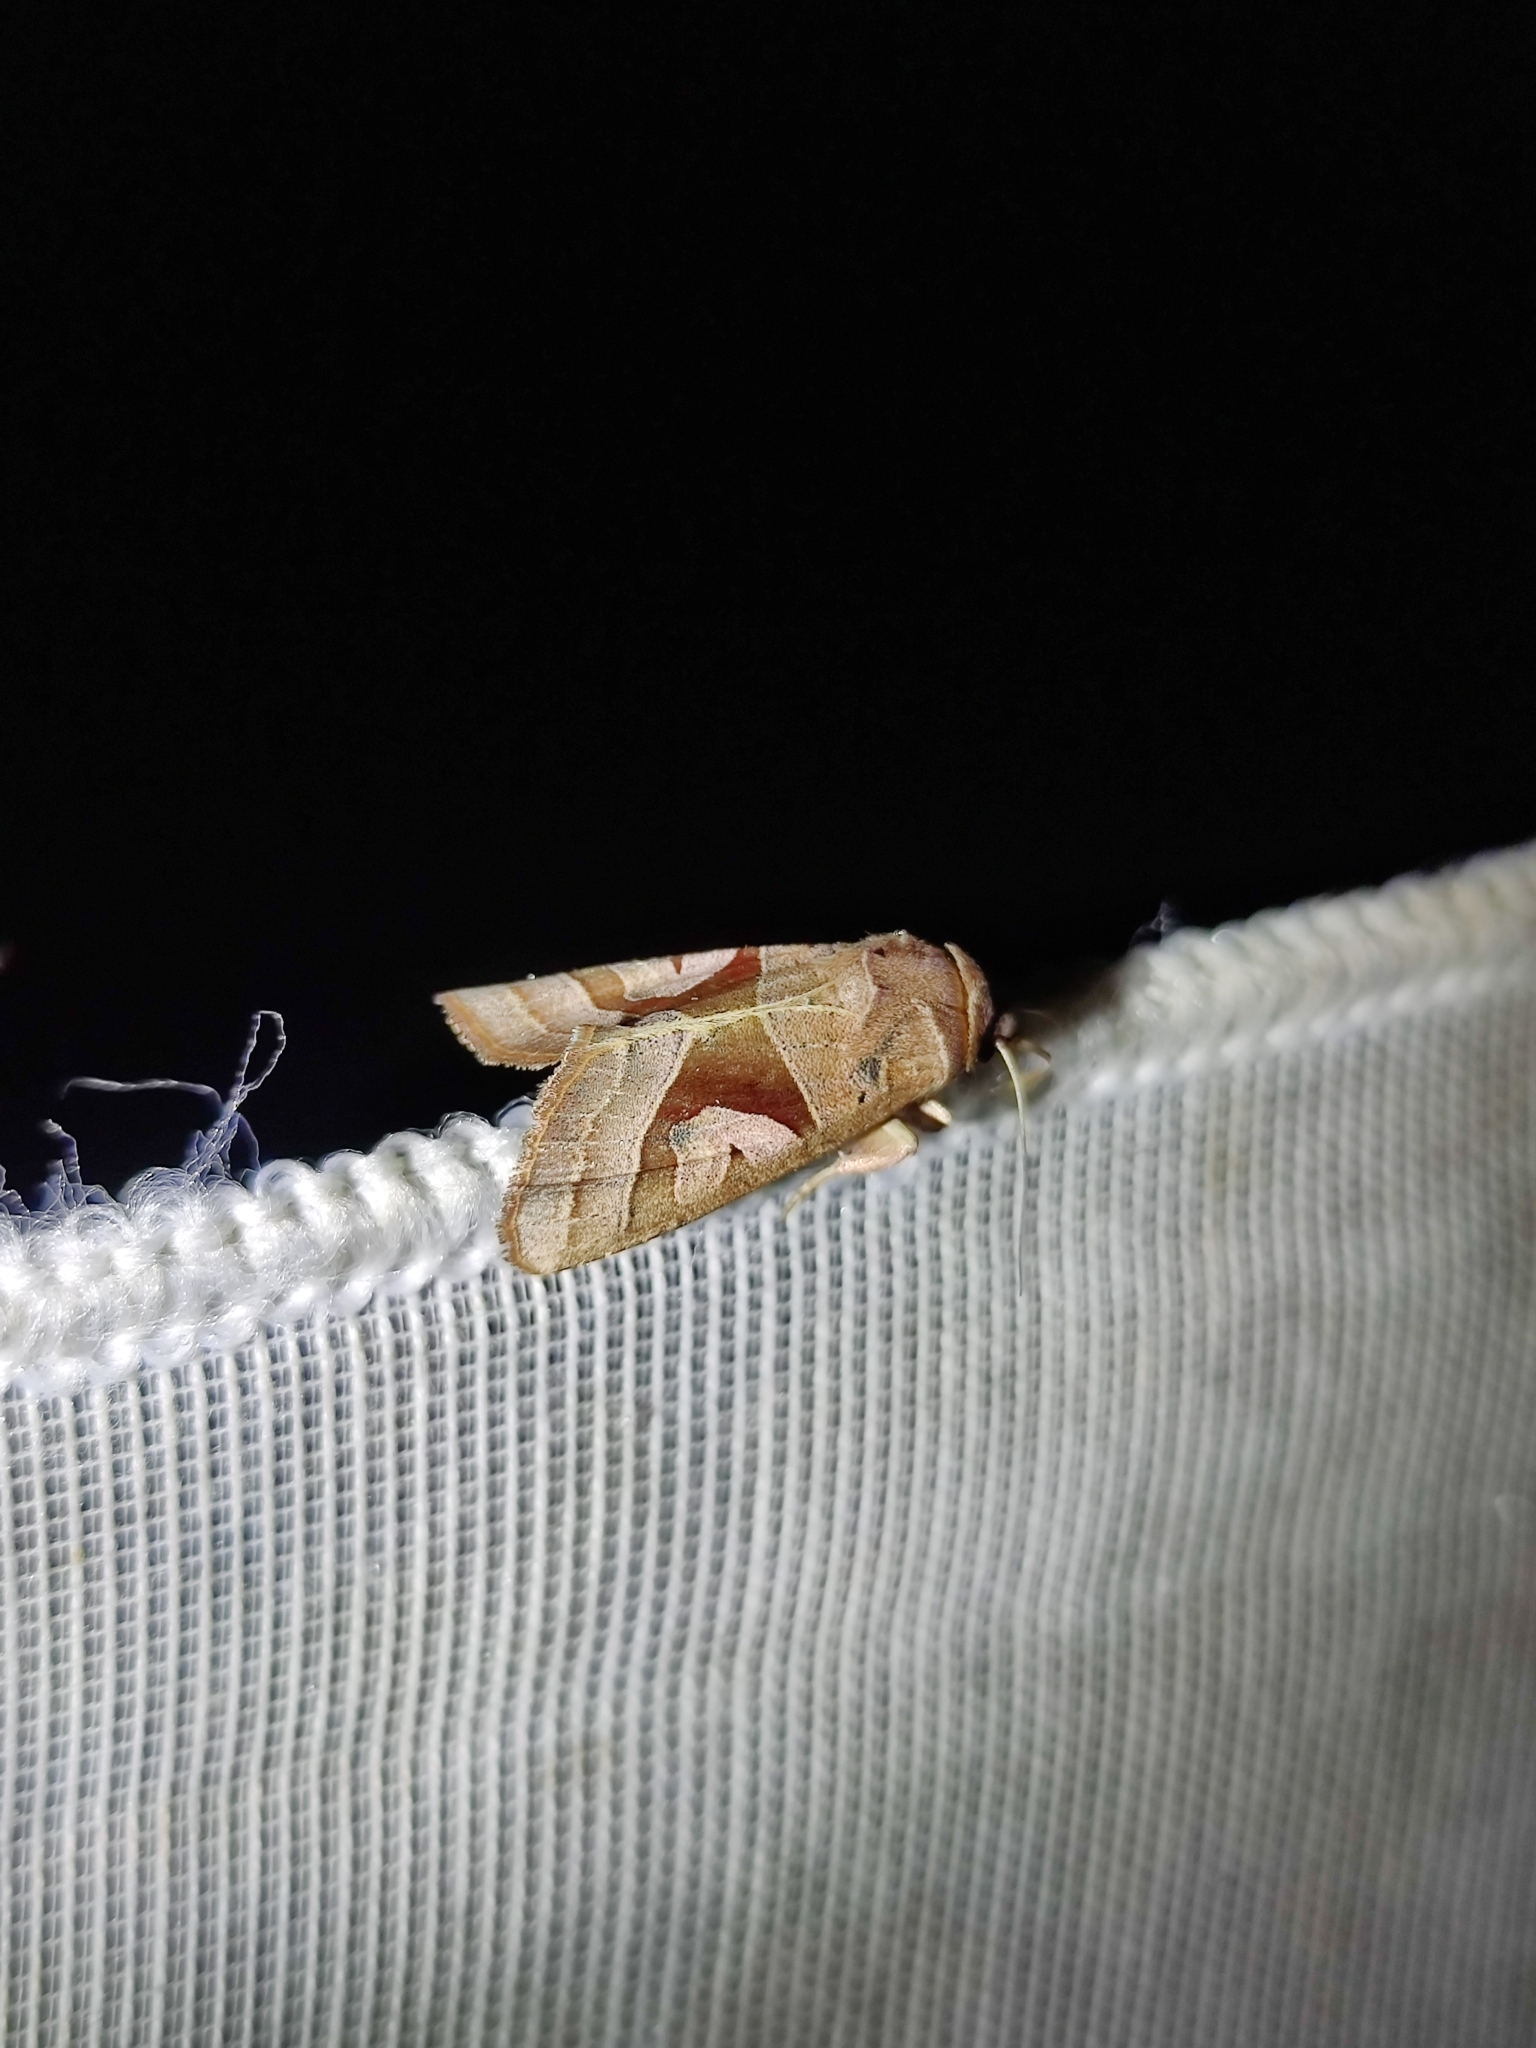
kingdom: Animalia
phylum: Arthropoda
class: Insecta
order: Lepidoptera
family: Noctuidae
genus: Conservula
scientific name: Conservula sinensis
